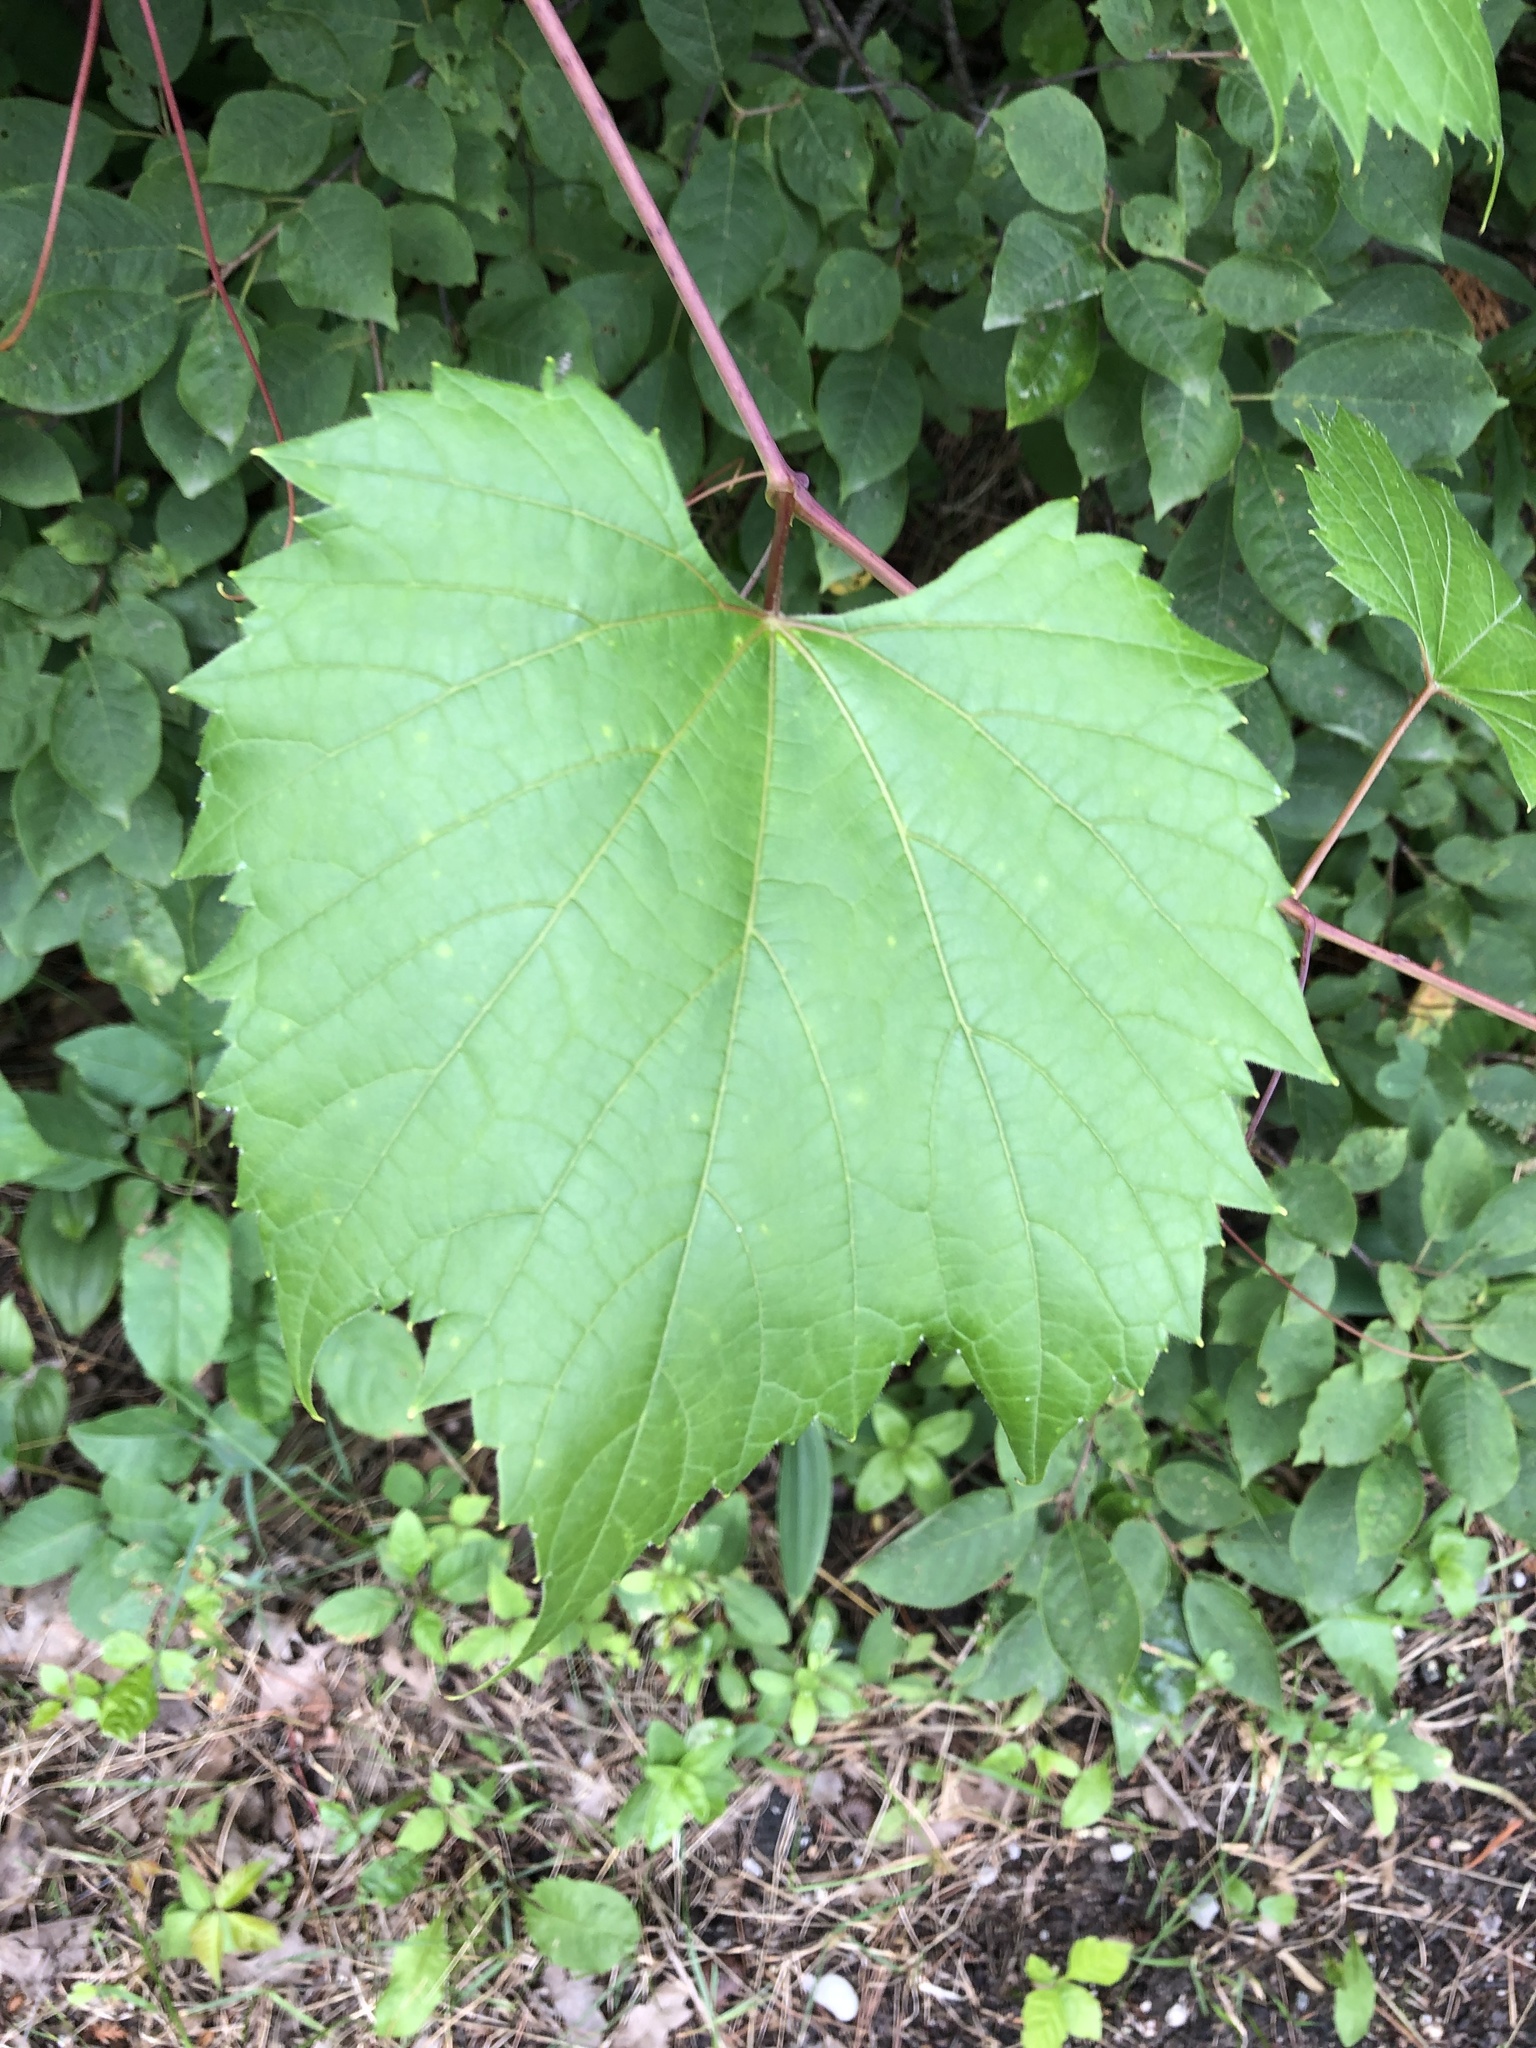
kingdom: Plantae
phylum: Tracheophyta
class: Magnoliopsida
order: Vitales
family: Vitaceae
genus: Vitis
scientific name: Vitis riparia
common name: Frost grape
